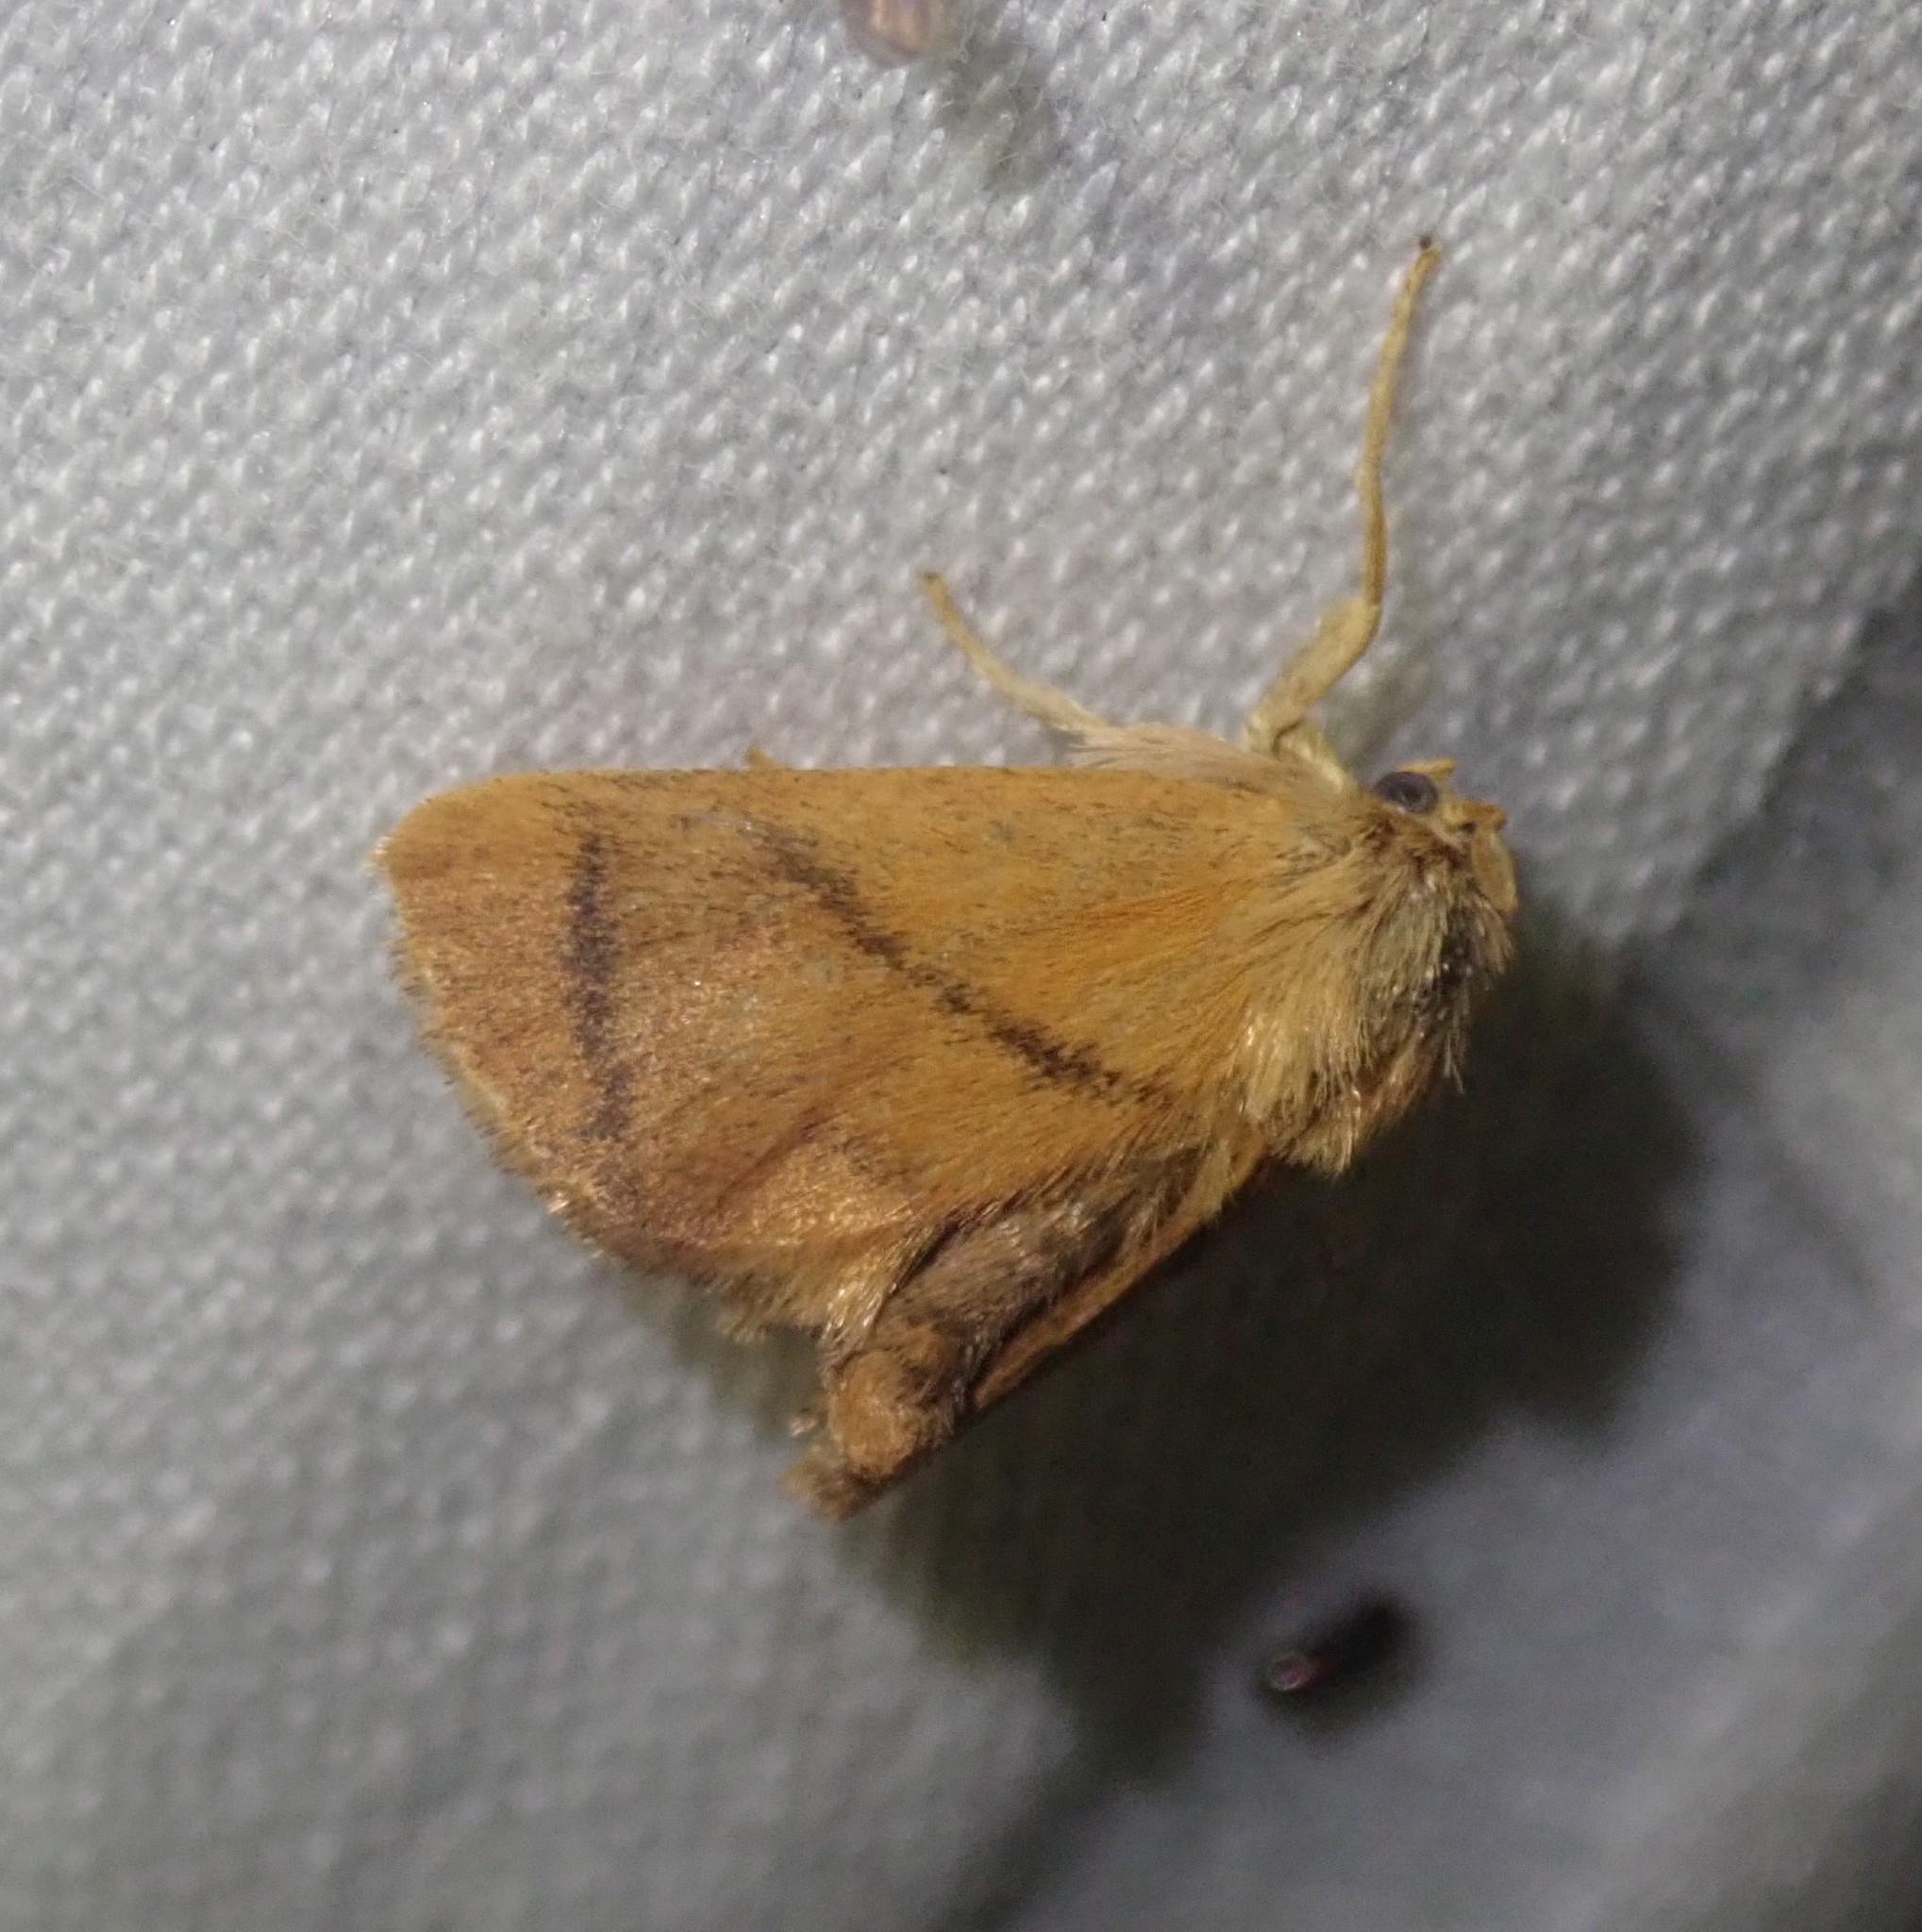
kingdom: Animalia
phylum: Arthropoda
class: Insecta
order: Lepidoptera
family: Limacodidae
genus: Apoda
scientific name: Apoda limacodes
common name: Festoon
